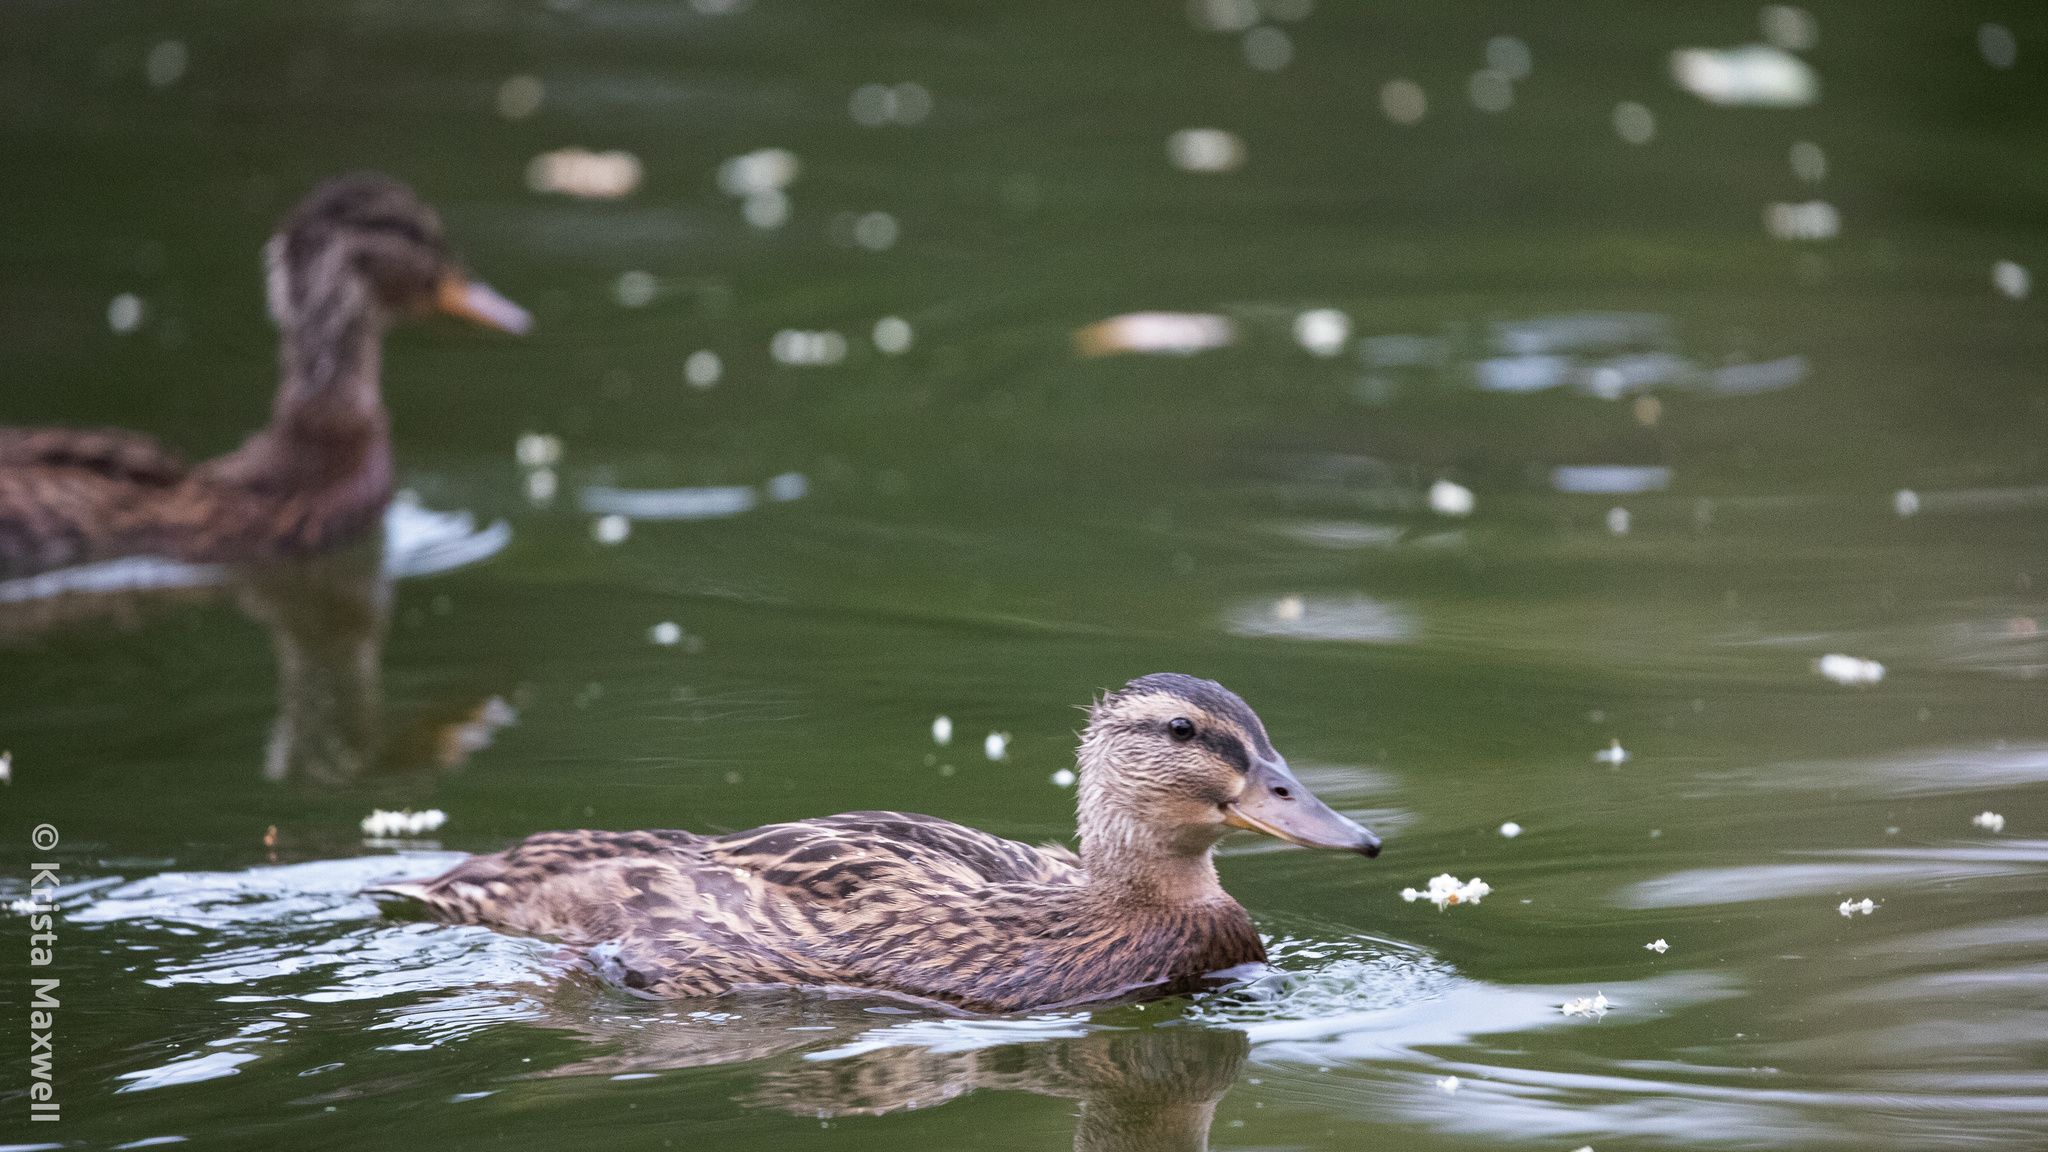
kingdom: Animalia
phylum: Chordata
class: Aves
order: Anseriformes
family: Anatidae
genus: Anas
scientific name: Anas platyrhynchos
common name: Mallard
